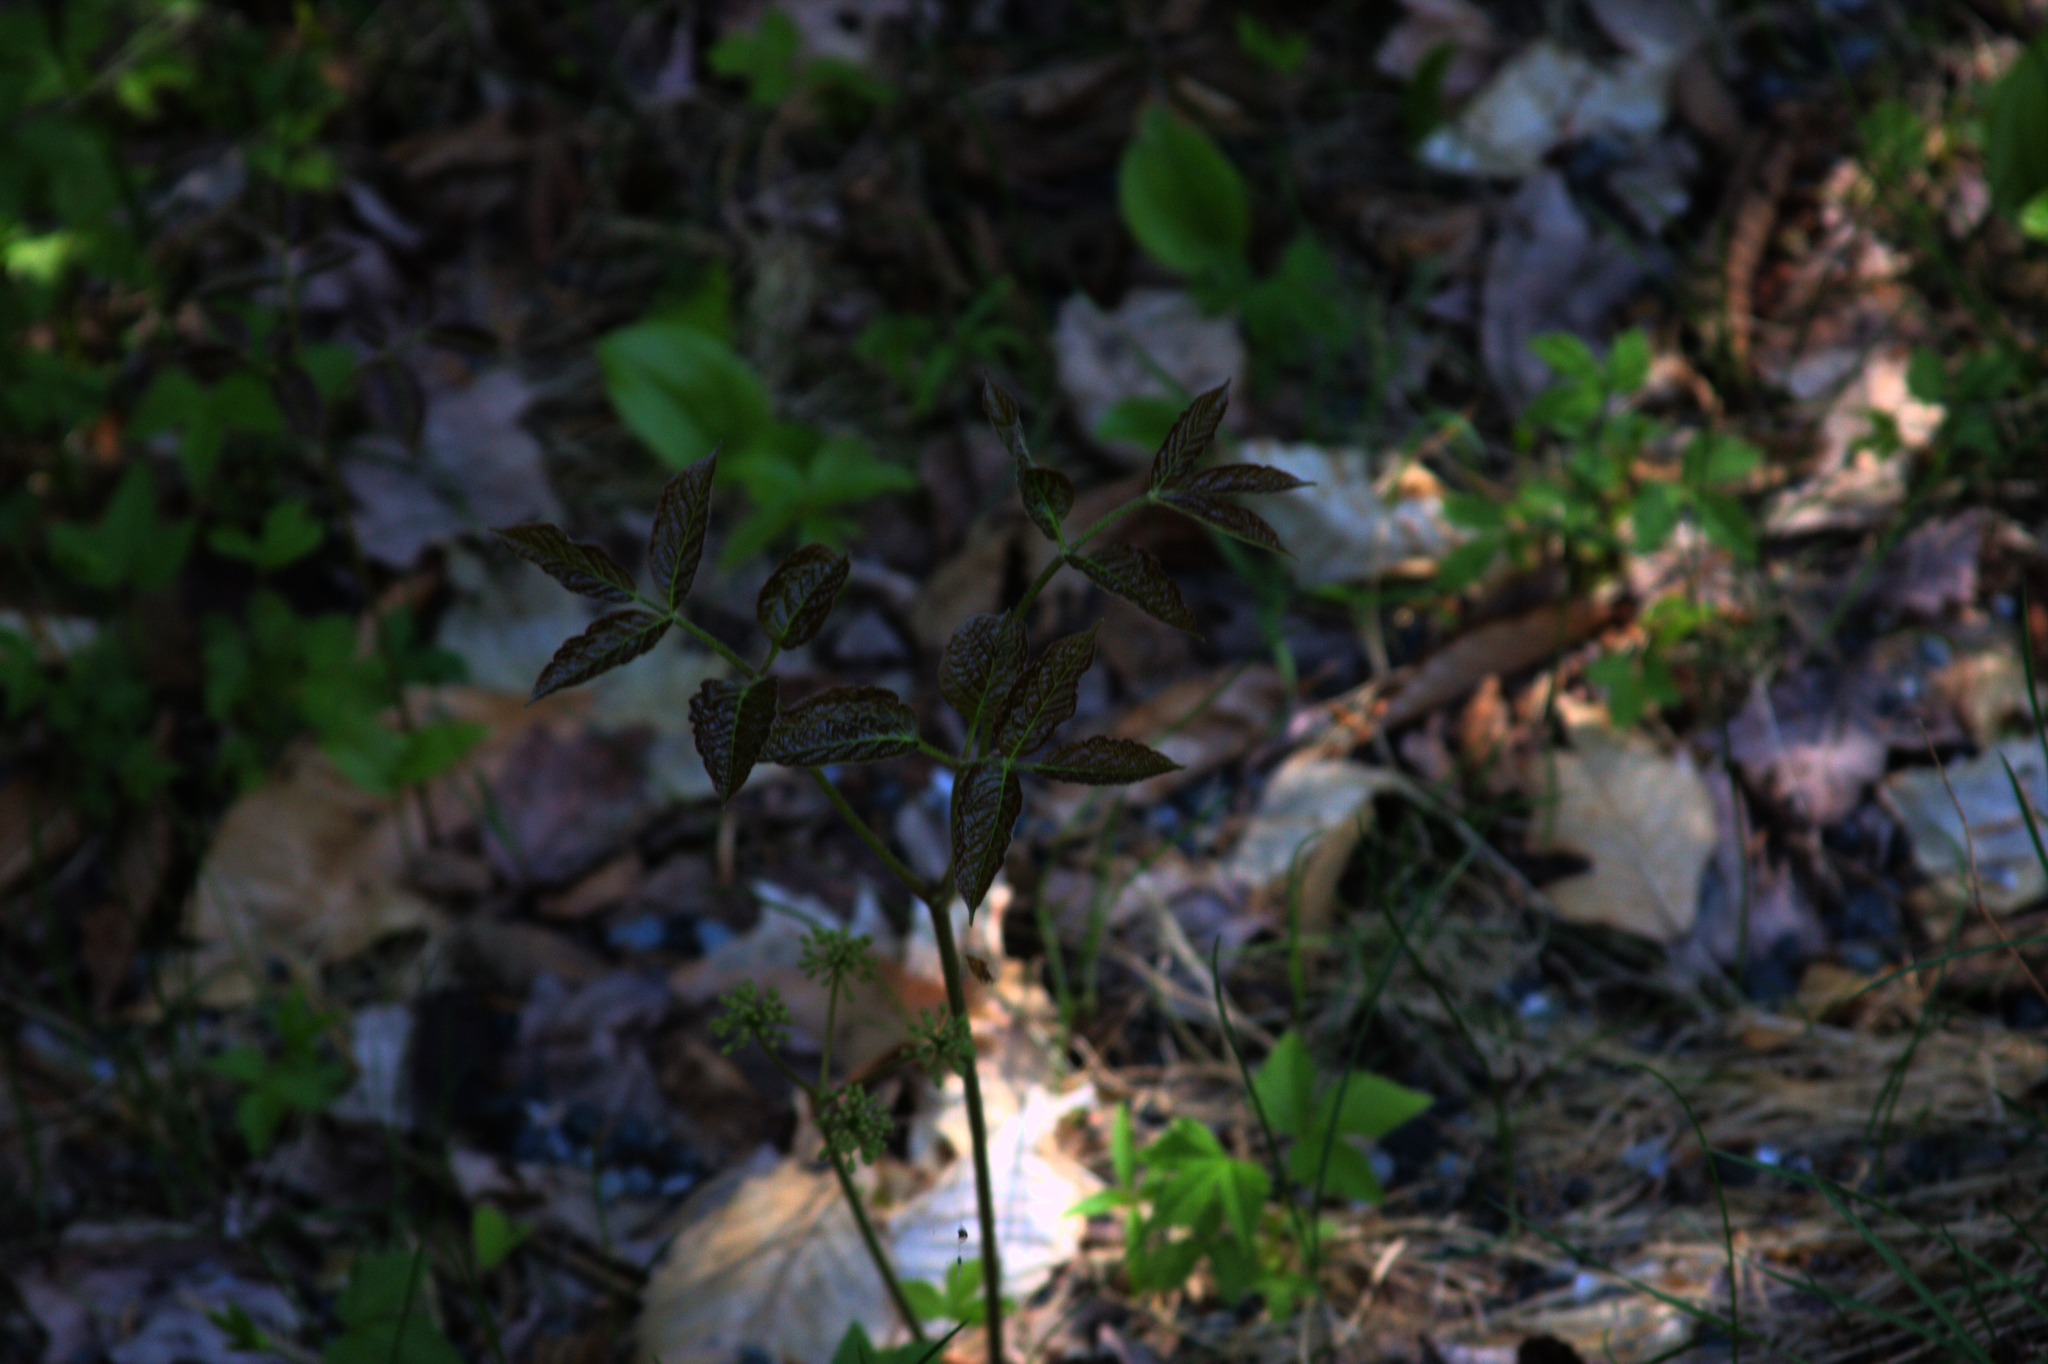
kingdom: Plantae
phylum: Tracheophyta
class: Magnoliopsida
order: Apiales
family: Araliaceae
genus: Aralia
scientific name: Aralia nudicaulis
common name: Wild sarsaparilla
